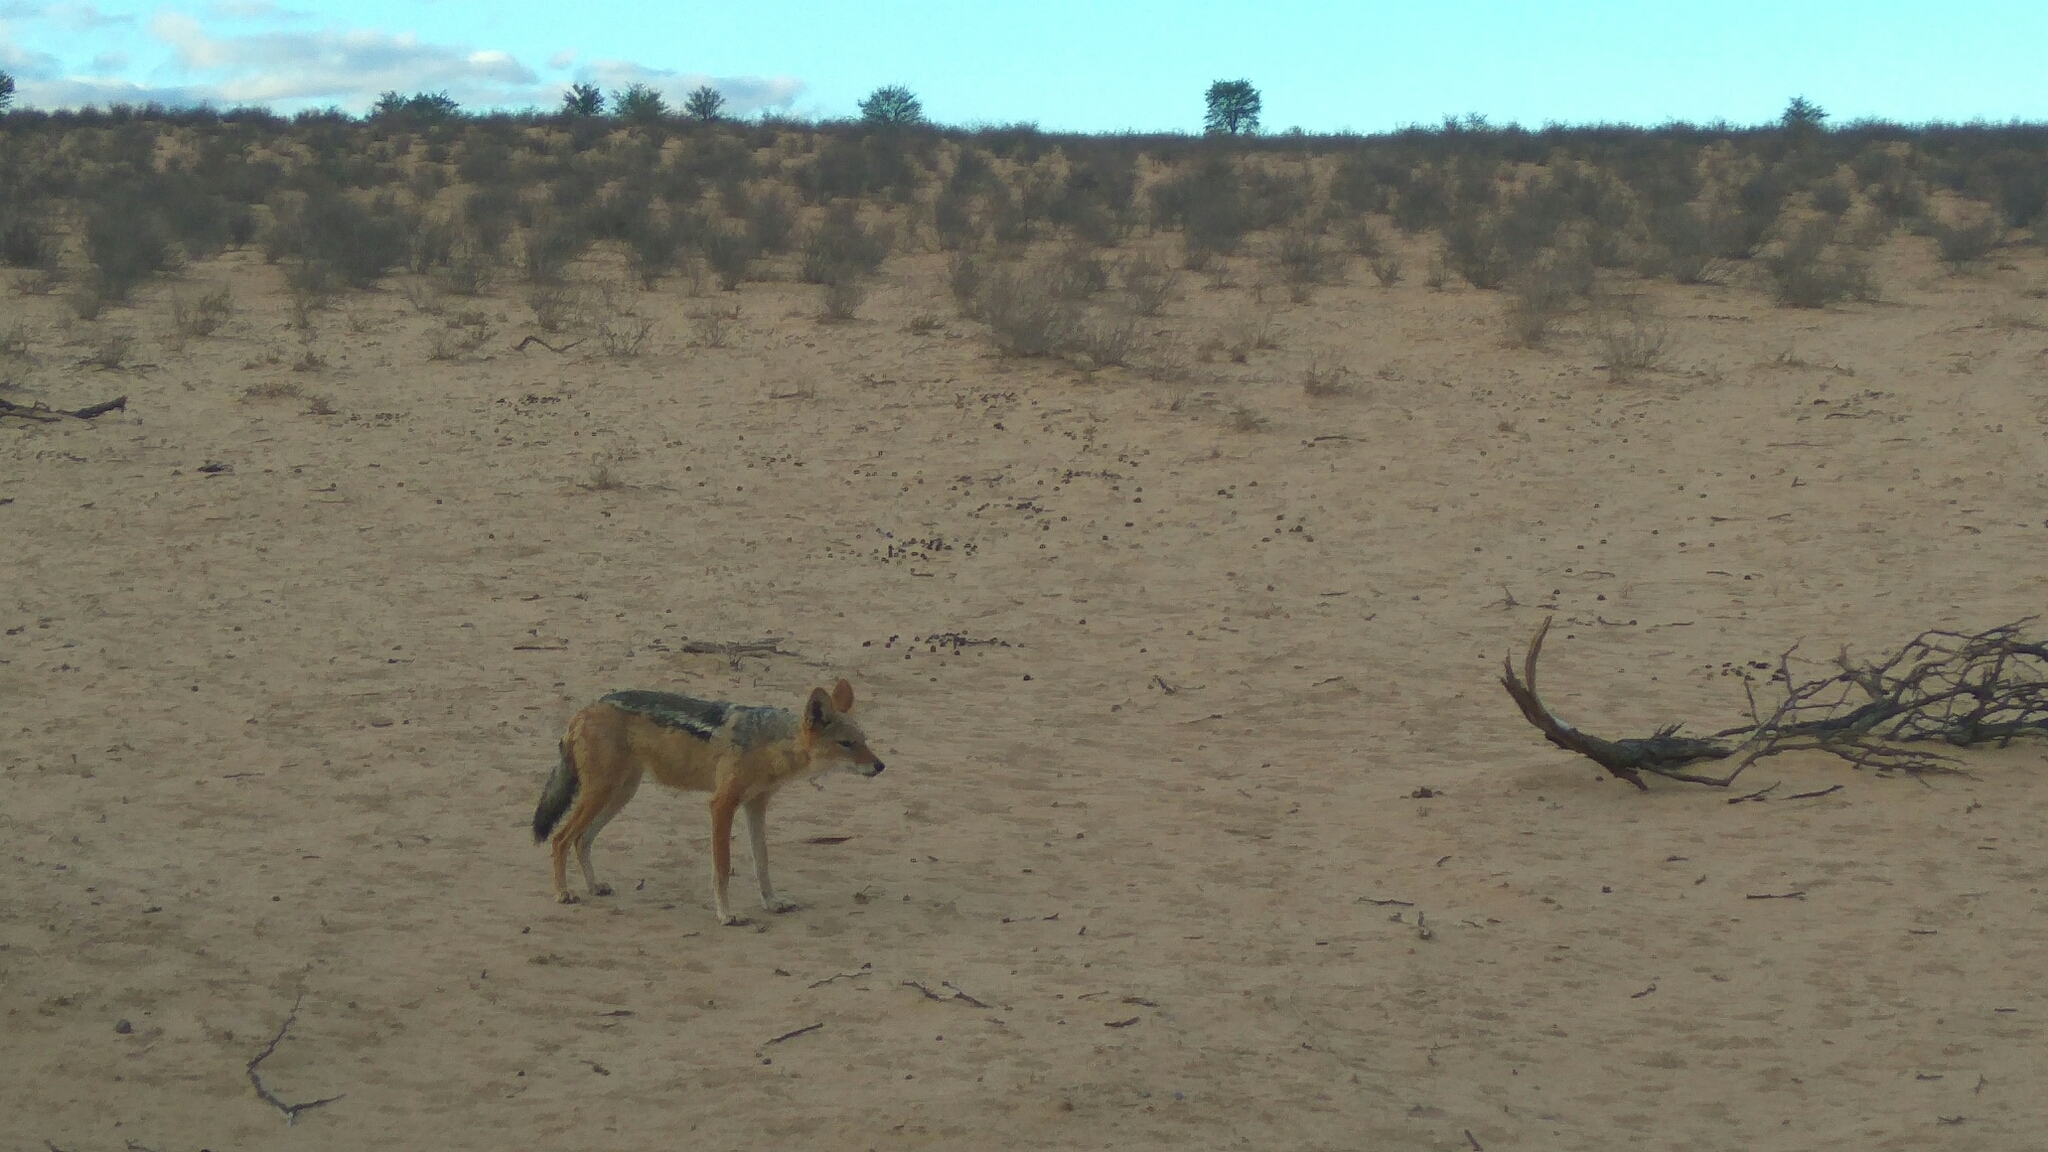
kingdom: Animalia
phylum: Chordata
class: Mammalia
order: Carnivora
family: Canidae
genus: Lupulella
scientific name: Lupulella
